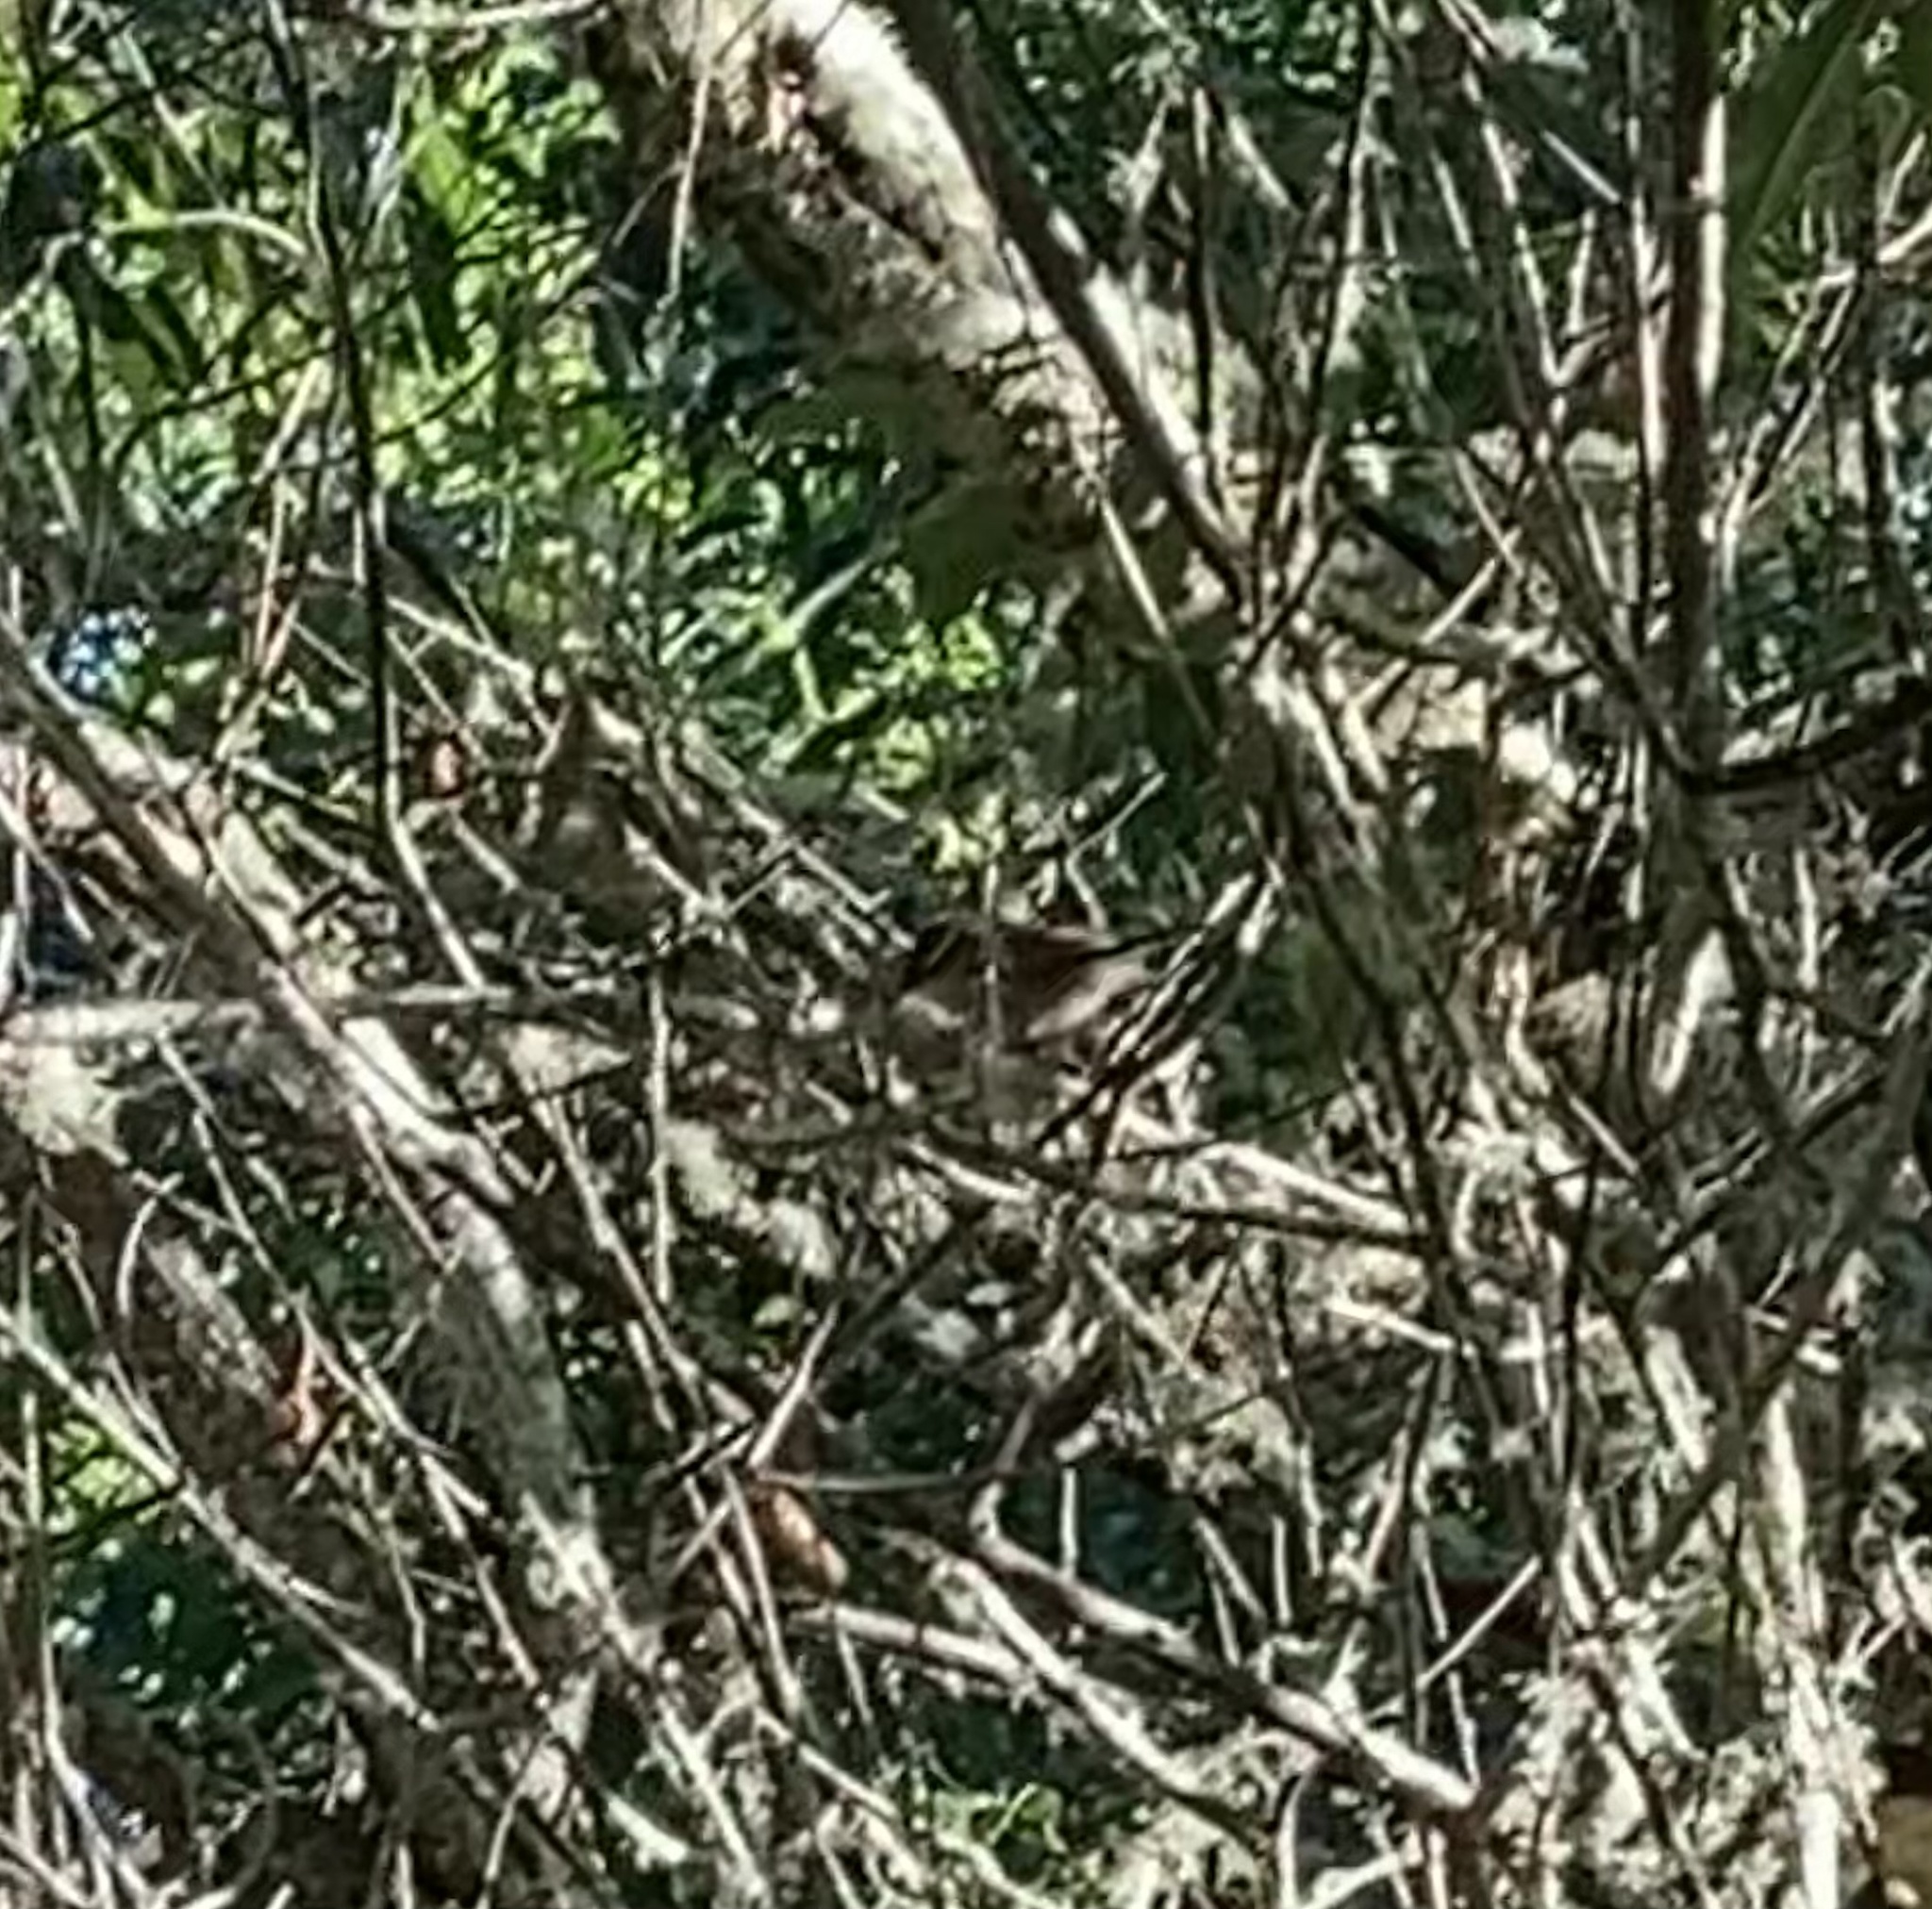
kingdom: Animalia
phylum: Chordata
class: Aves
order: Passeriformes
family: Troglodytidae
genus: Thryomanes
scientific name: Thryomanes bewickii
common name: Bewick's wren
